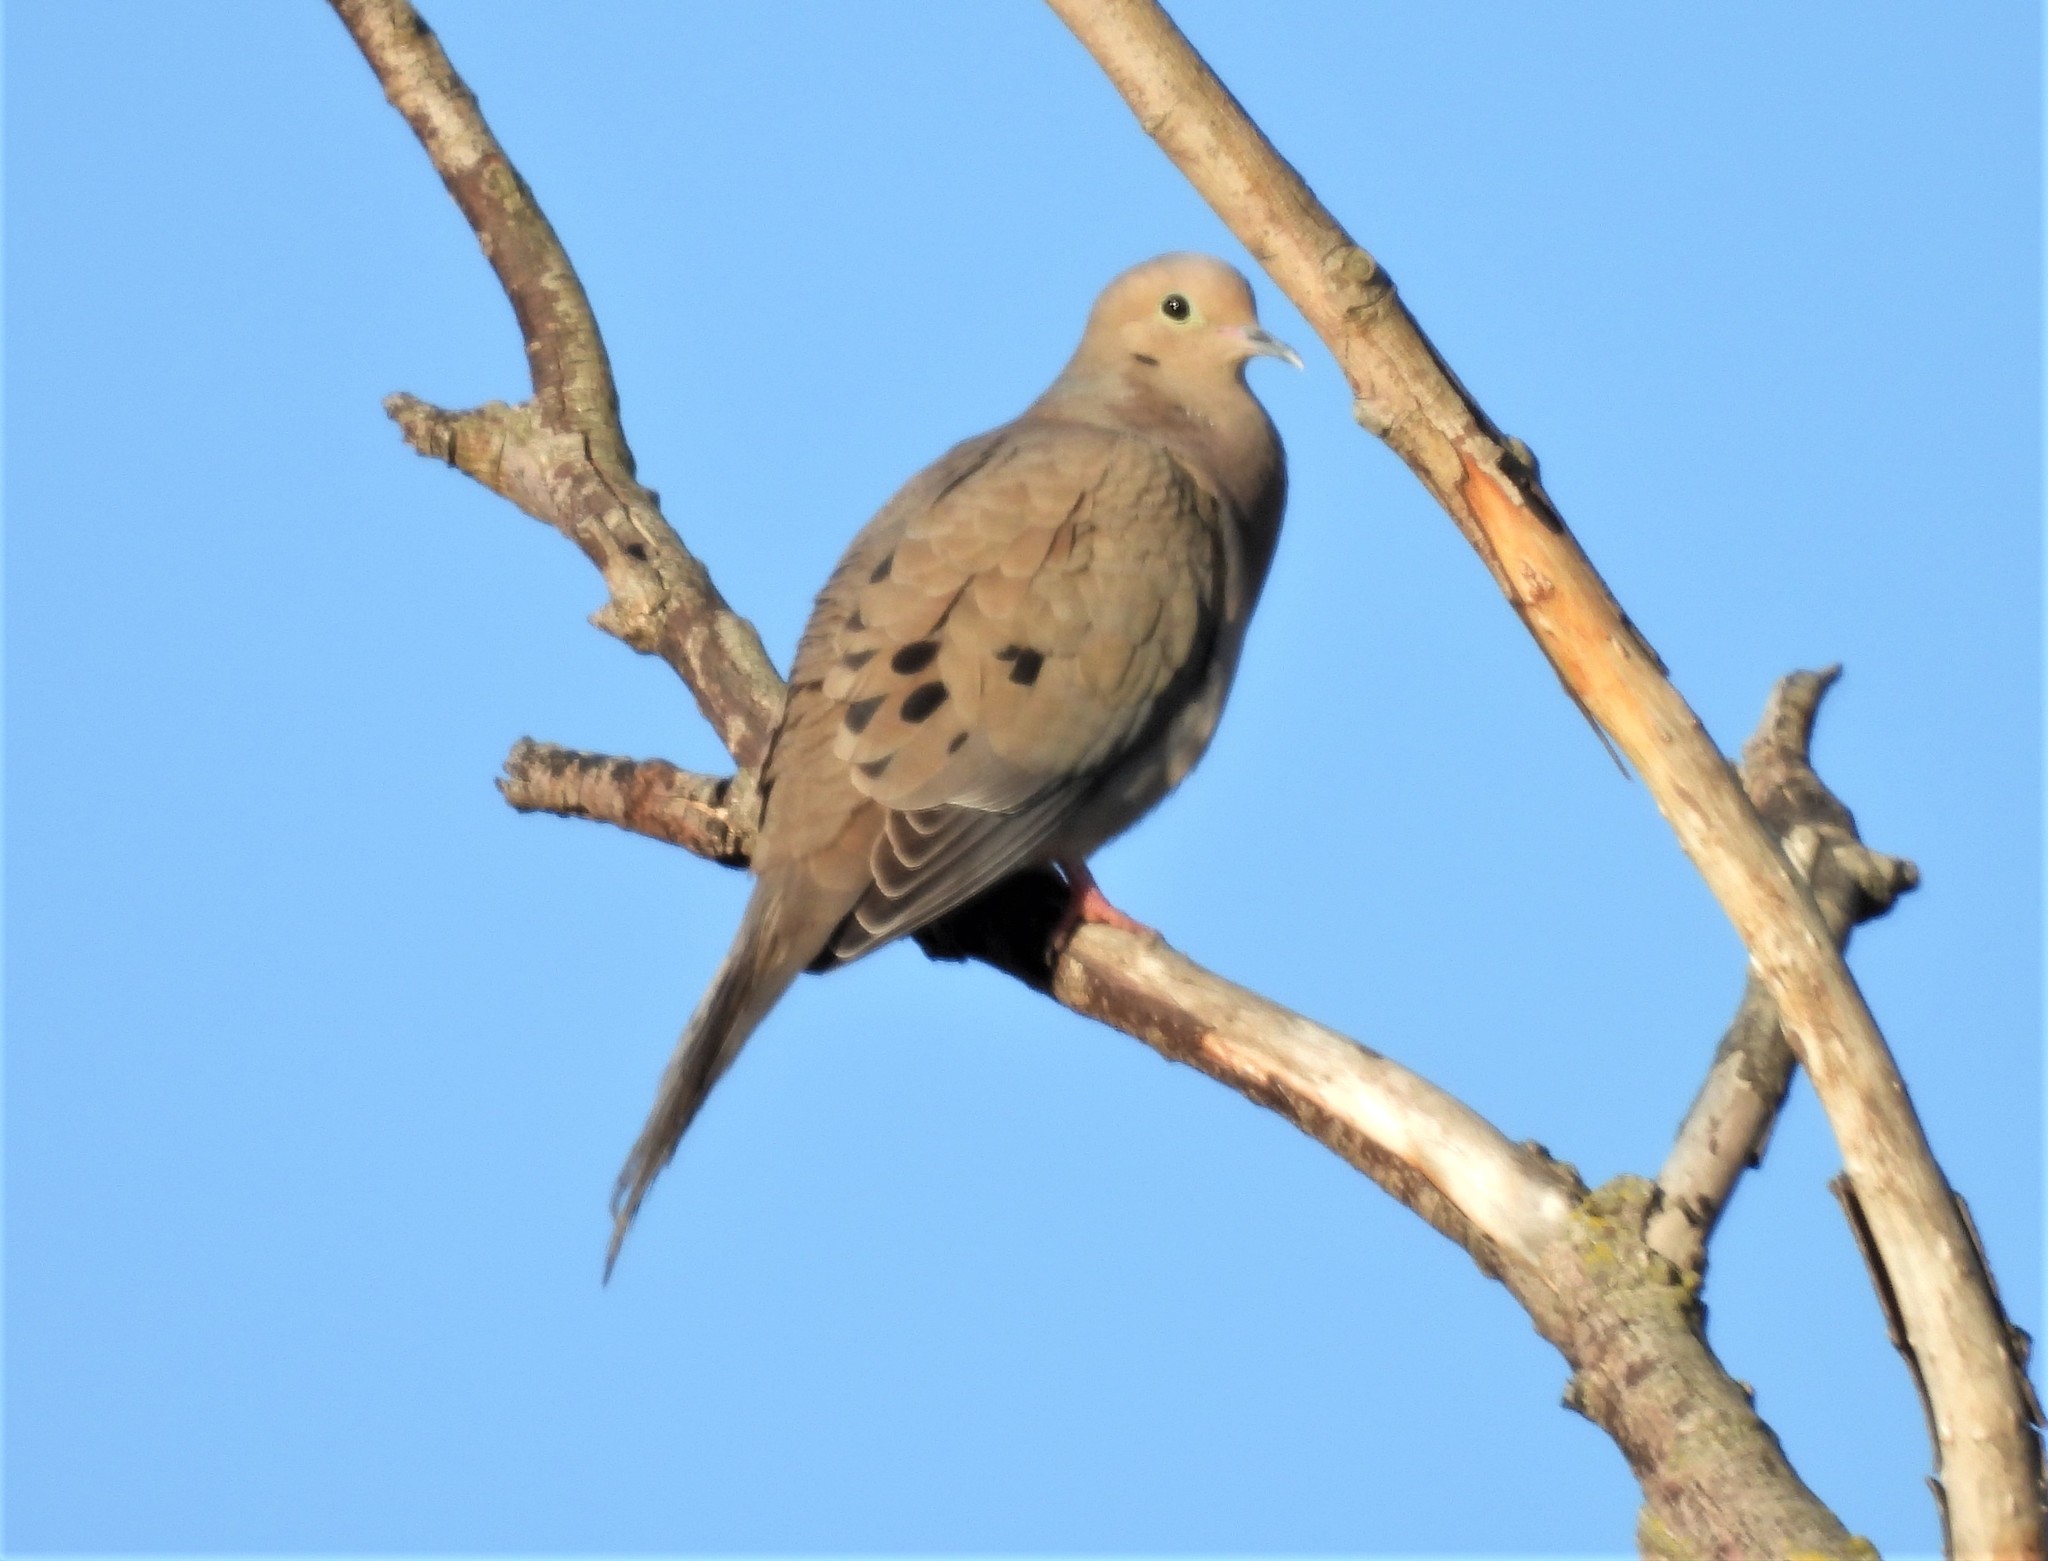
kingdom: Animalia
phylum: Chordata
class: Aves
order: Columbiformes
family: Columbidae
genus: Zenaida
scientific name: Zenaida macroura
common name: Mourning dove
